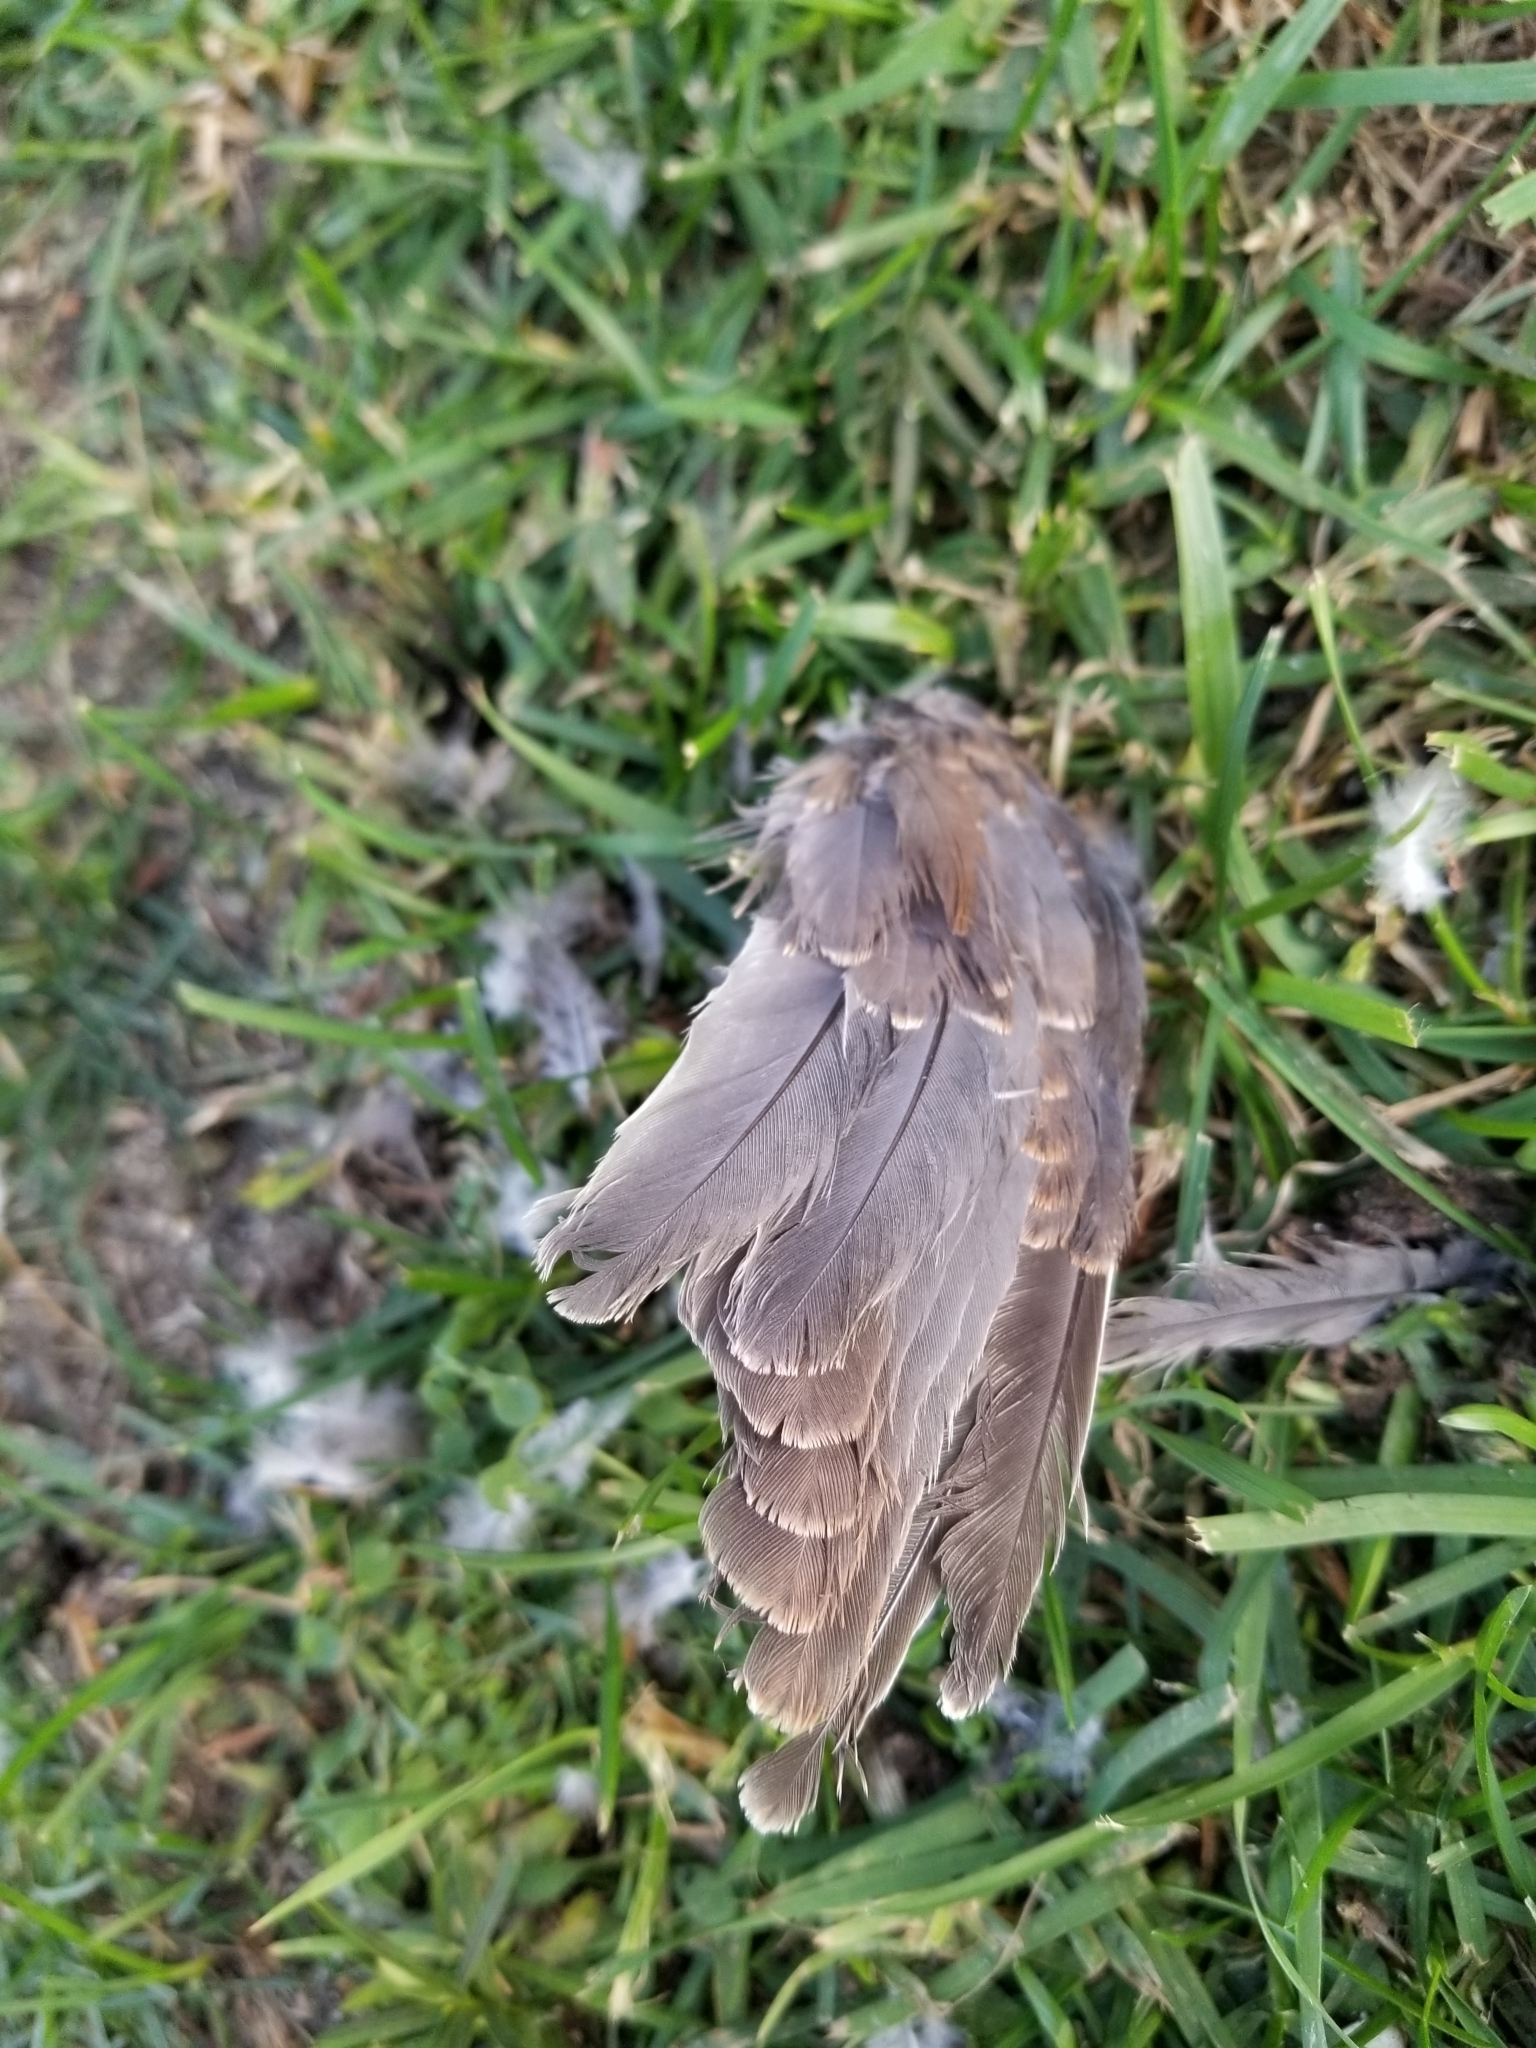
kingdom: Animalia
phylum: Chordata
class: Aves
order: Columbiformes
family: Columbidae
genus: Zenaida
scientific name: Zenaida macroura
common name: Mourning dove
